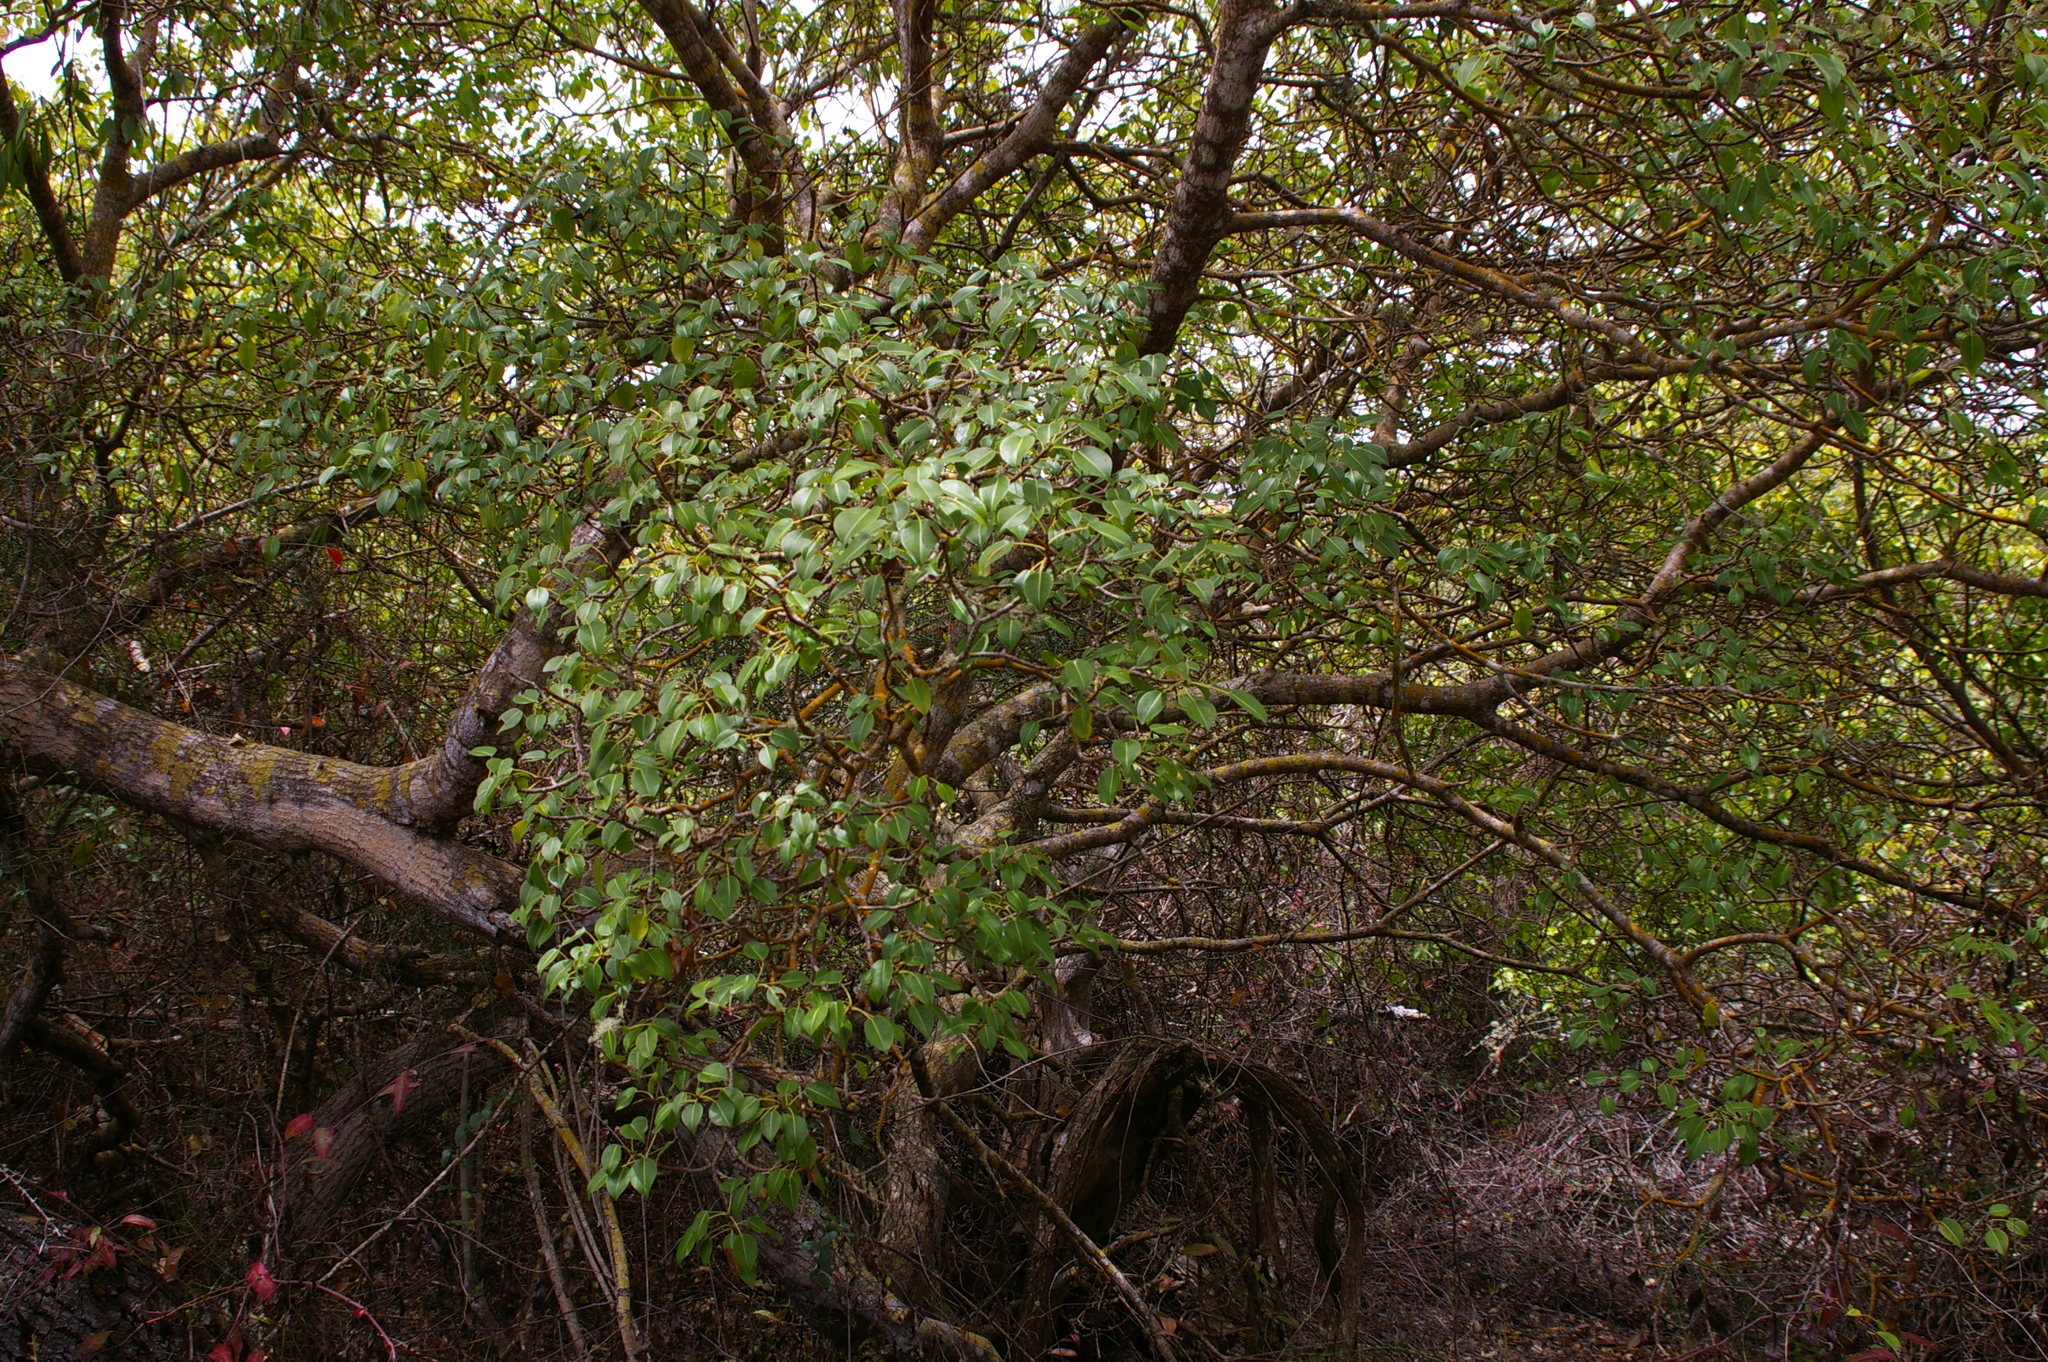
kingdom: Plantae
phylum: Tracheophyta
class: Magnoliopsida
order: Malpighiales
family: Euphorbiaceae
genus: Hippomane
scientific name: Hippomane mancinella
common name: Manchineel
